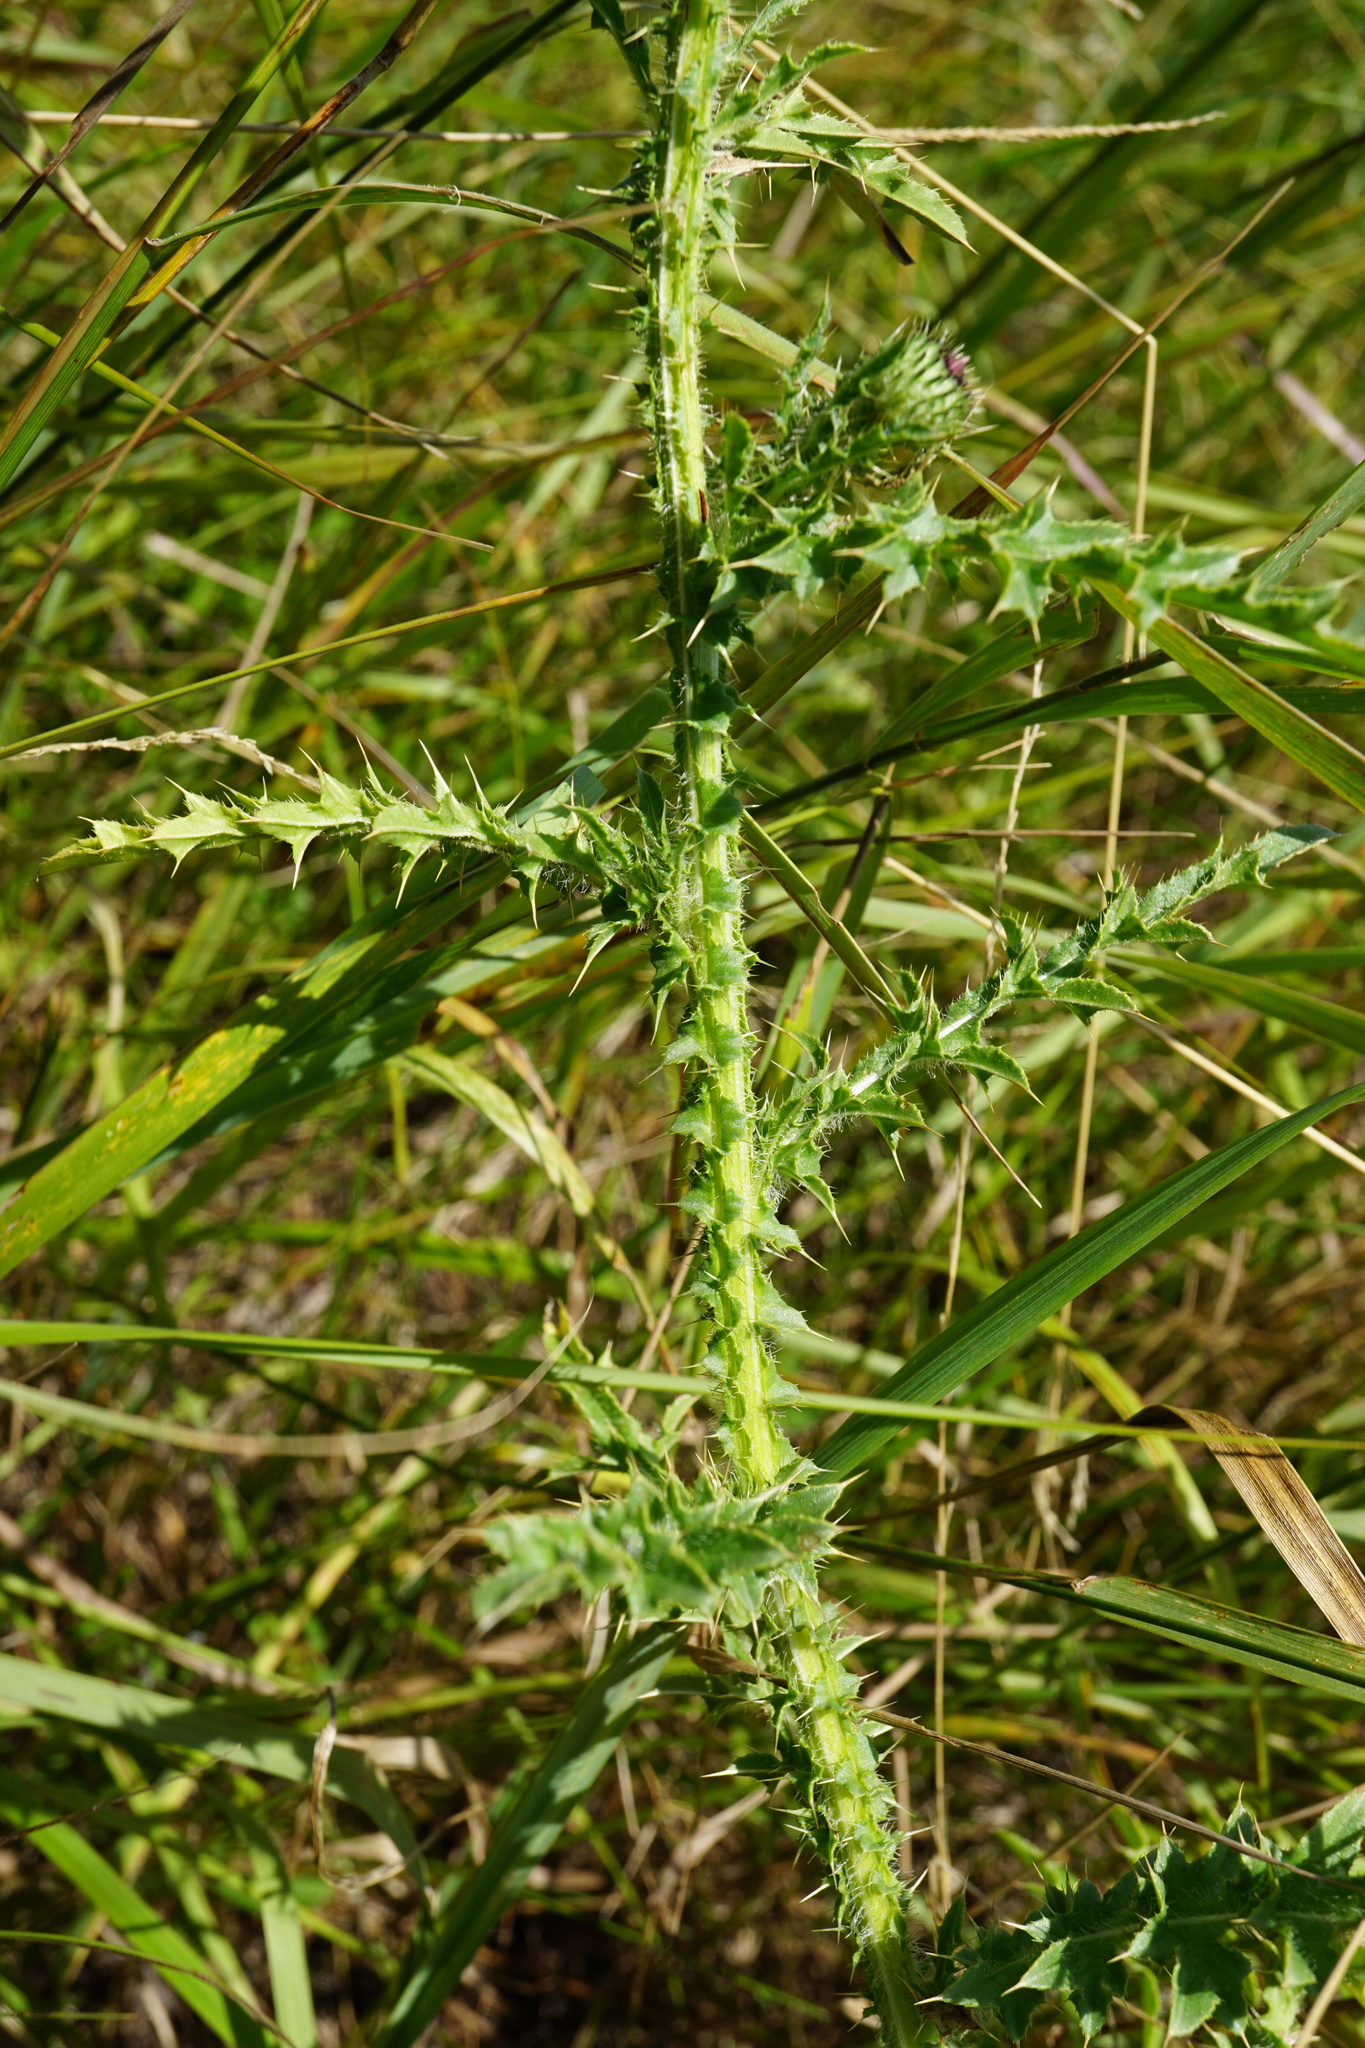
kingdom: Plantae
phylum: Tracheophyta
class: Magnoliopsida
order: Asterales
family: Asteraceae
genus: Carduus
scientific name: Carduus acanthoides
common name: Plumeless thistle
